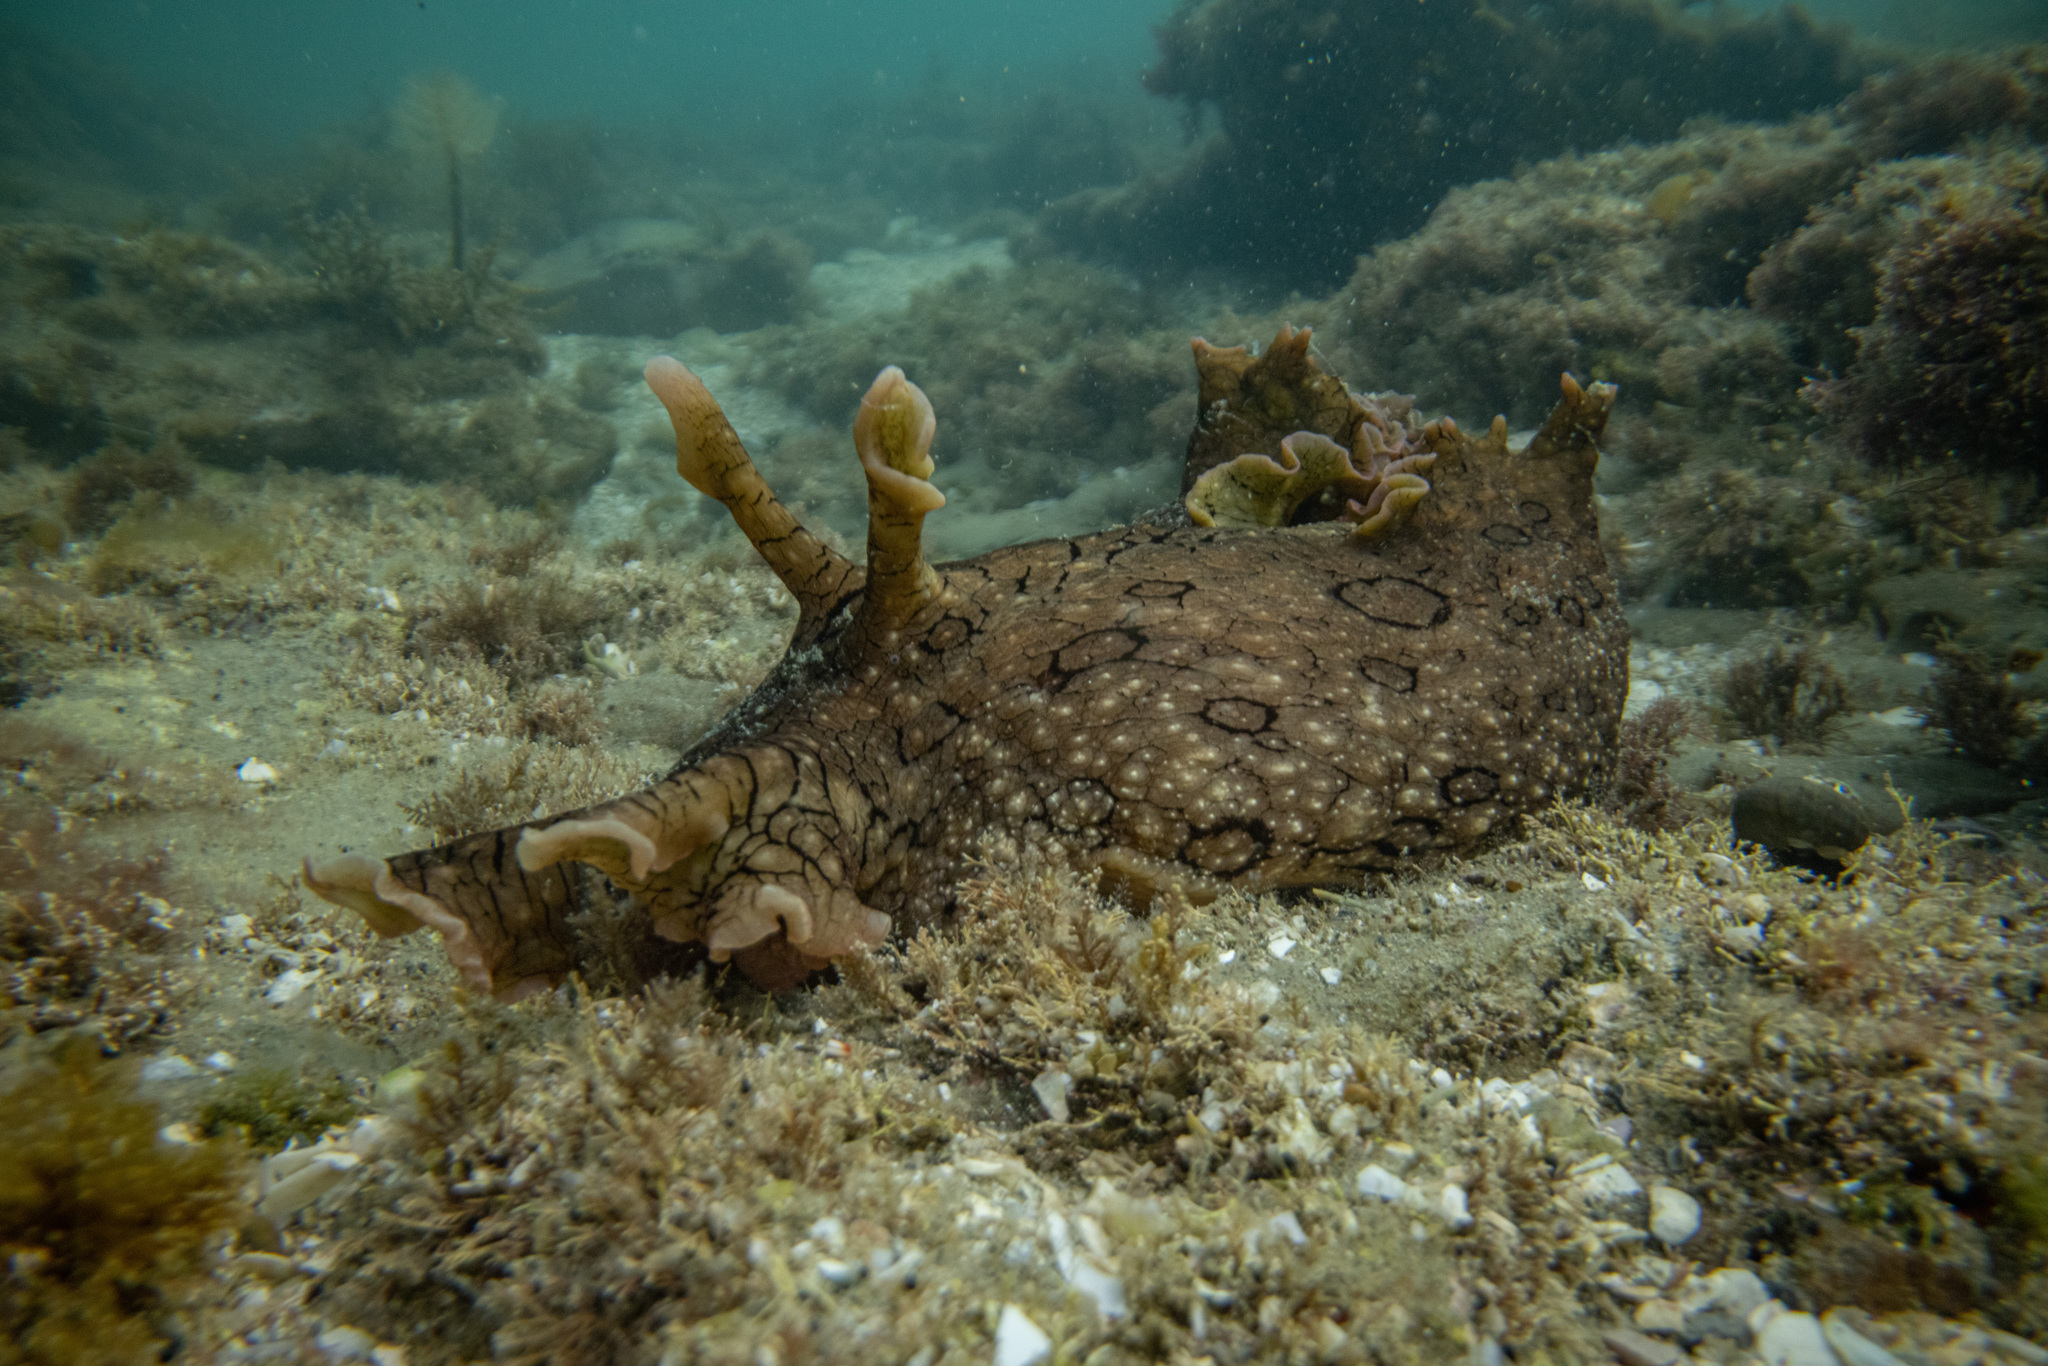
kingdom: Animalia
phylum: Mollusca
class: Gastropoda
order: Aplysiida
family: Aplysiidae
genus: Aplysia
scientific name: Aplysia argus
